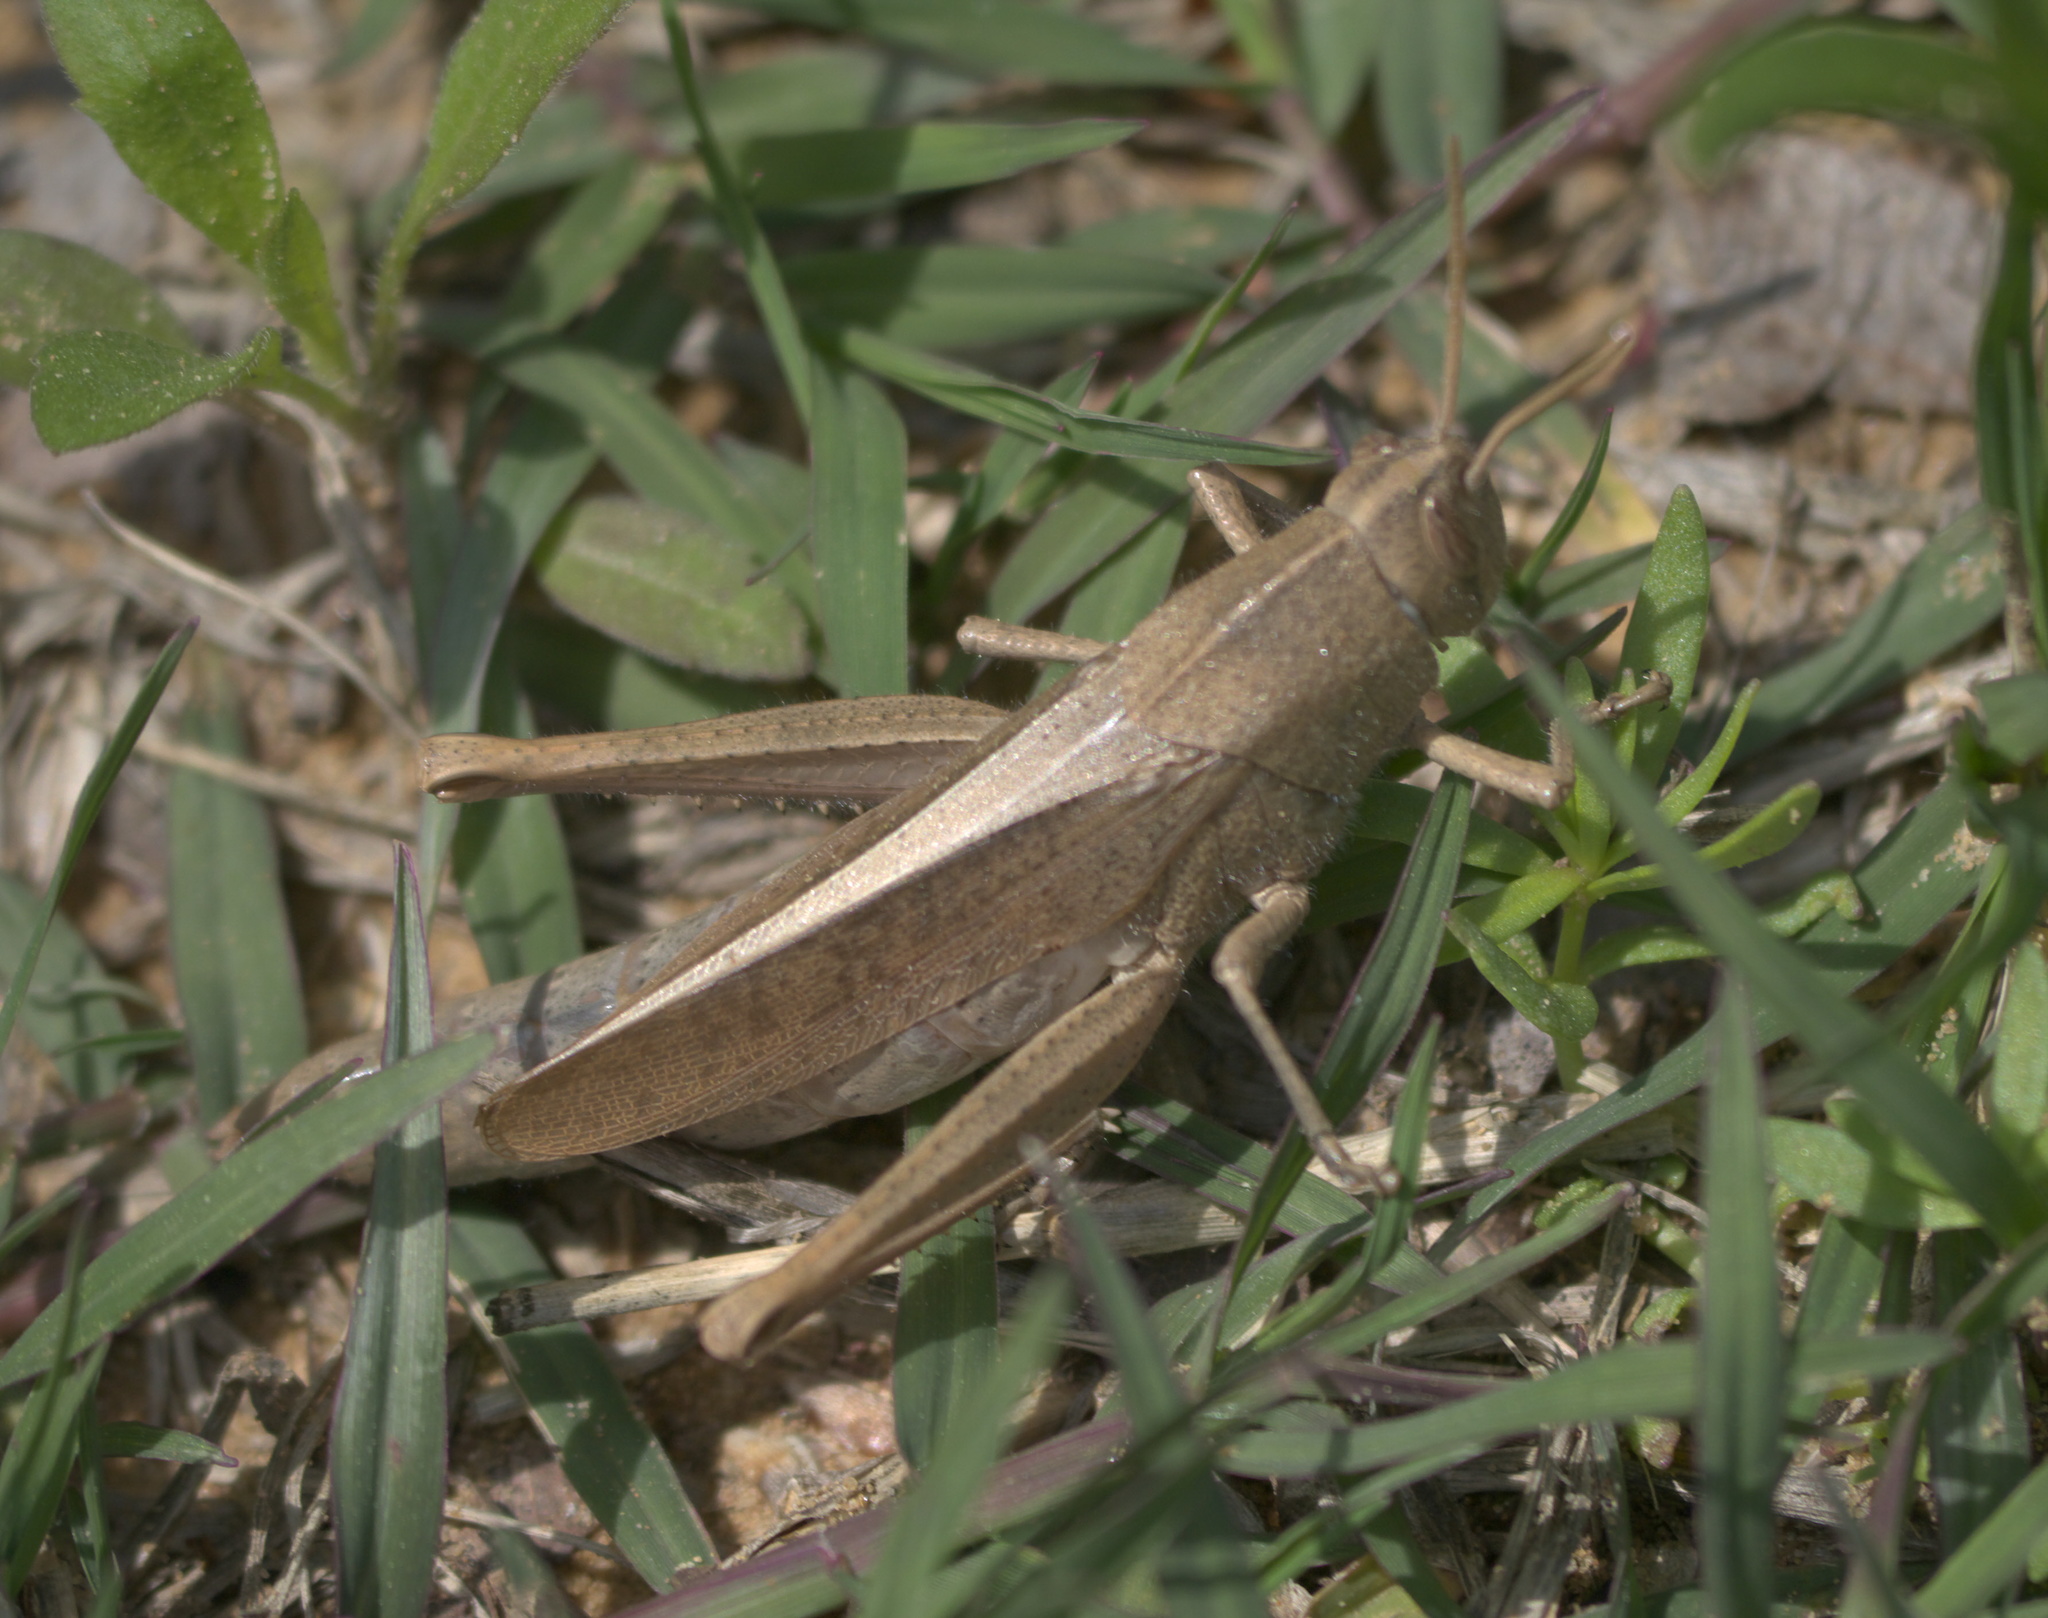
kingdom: Animalia
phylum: Arthropoda
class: Insecta
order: Orthoptera
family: Acrididae
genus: Schistocerca
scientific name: Schistocerca damnifica
